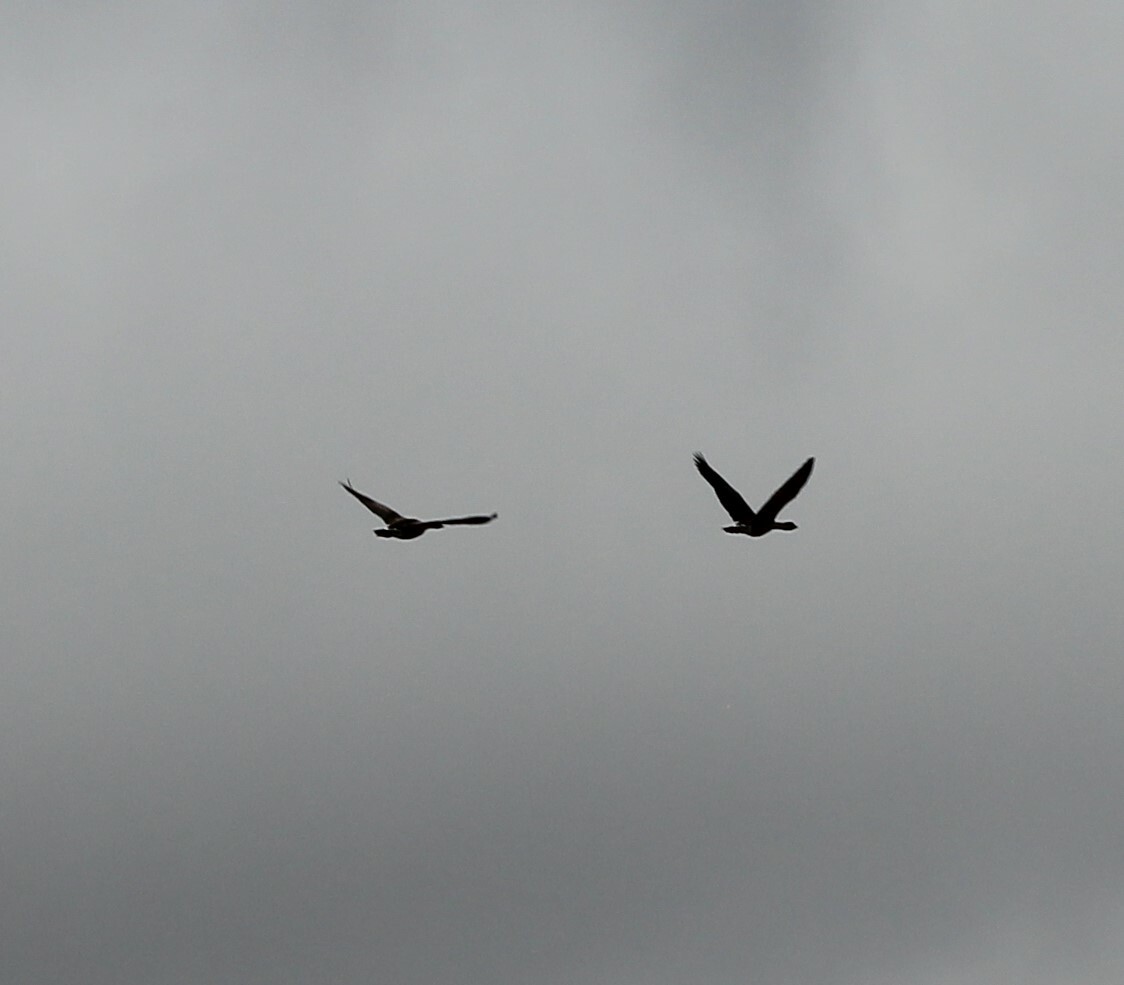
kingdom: Animalia
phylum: Chordata
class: Aves
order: Anseriformes
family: Anatidae
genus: Branta
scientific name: Branta sandvicensis
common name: Nene
